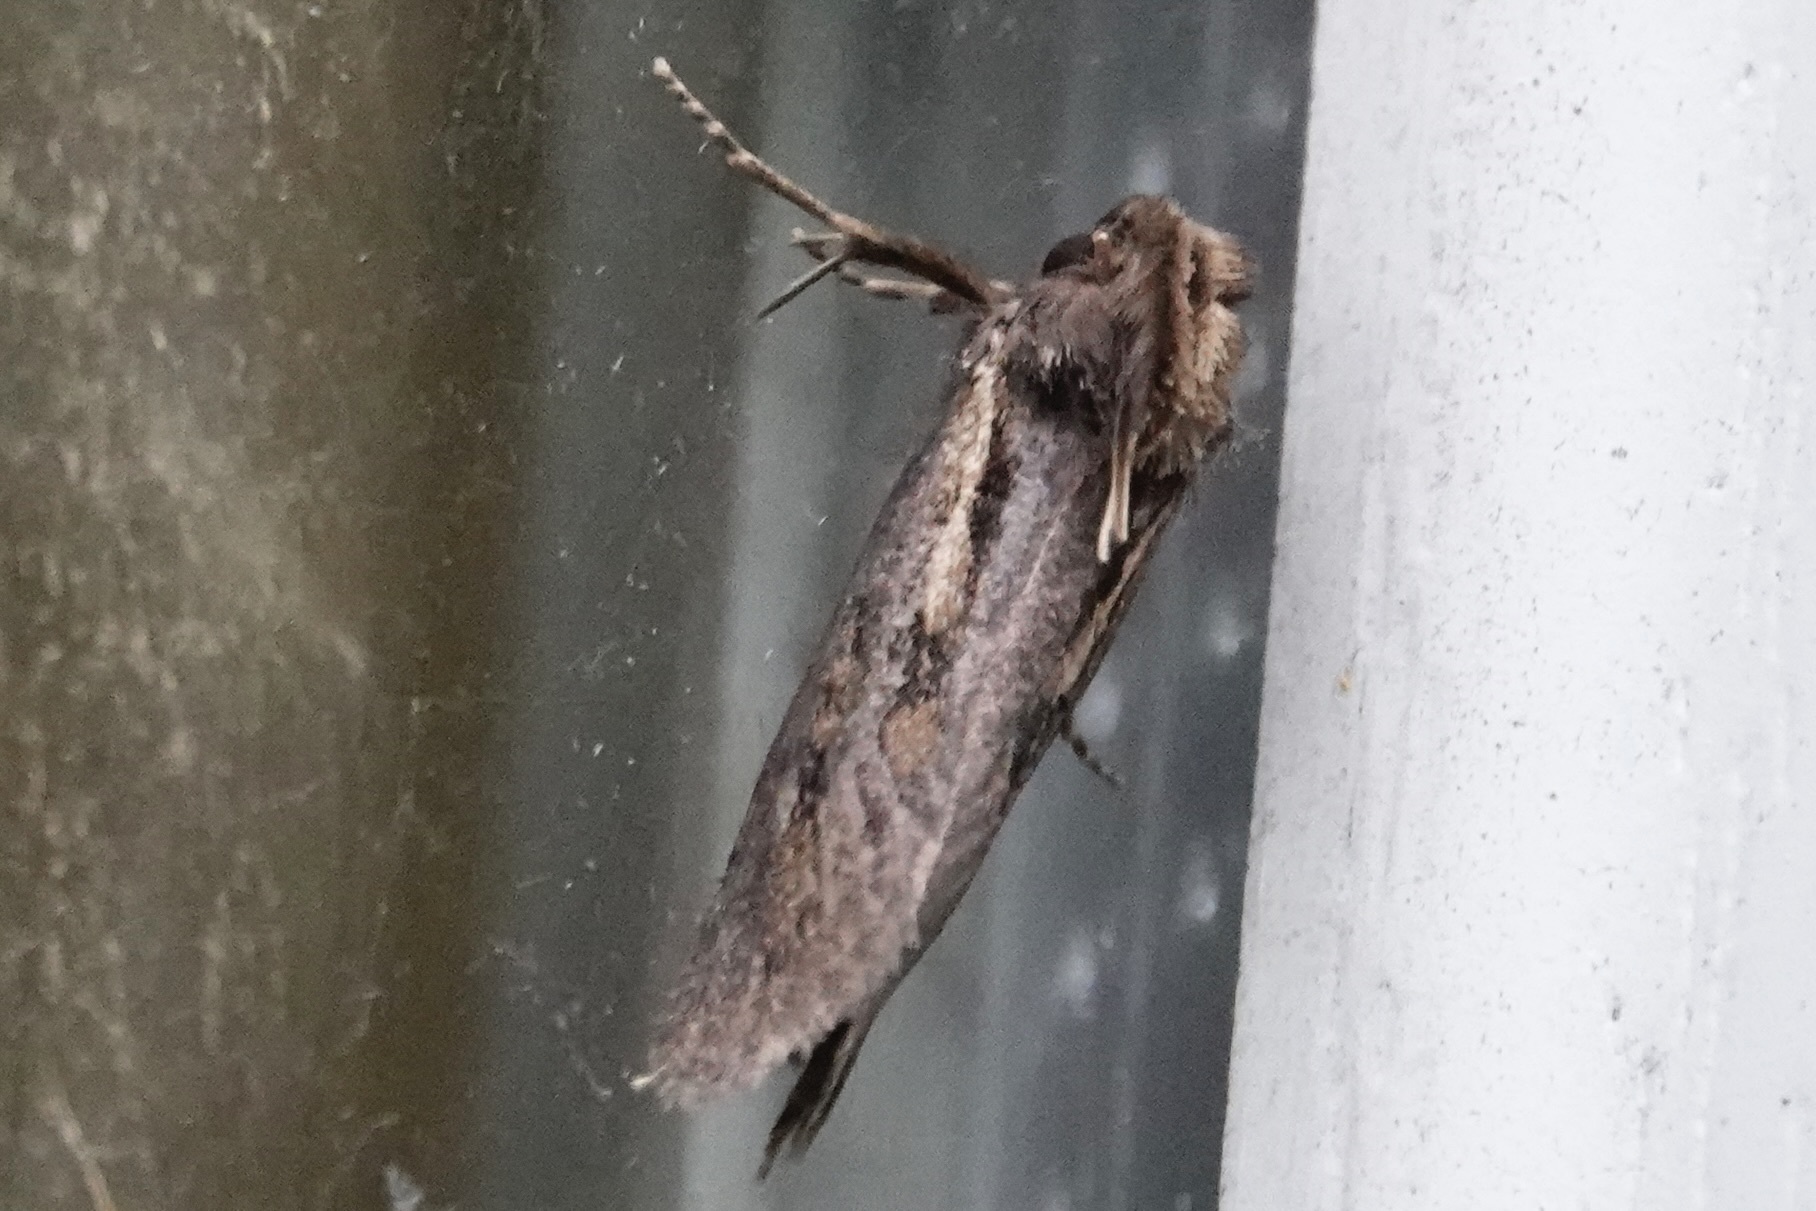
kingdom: Animalia
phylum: Arthropoda
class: Insecta
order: Lepidoptera
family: Tineidae
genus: Acrolophus
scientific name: Acrolophus popeanella
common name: Clemens' grass tubeworm moth
